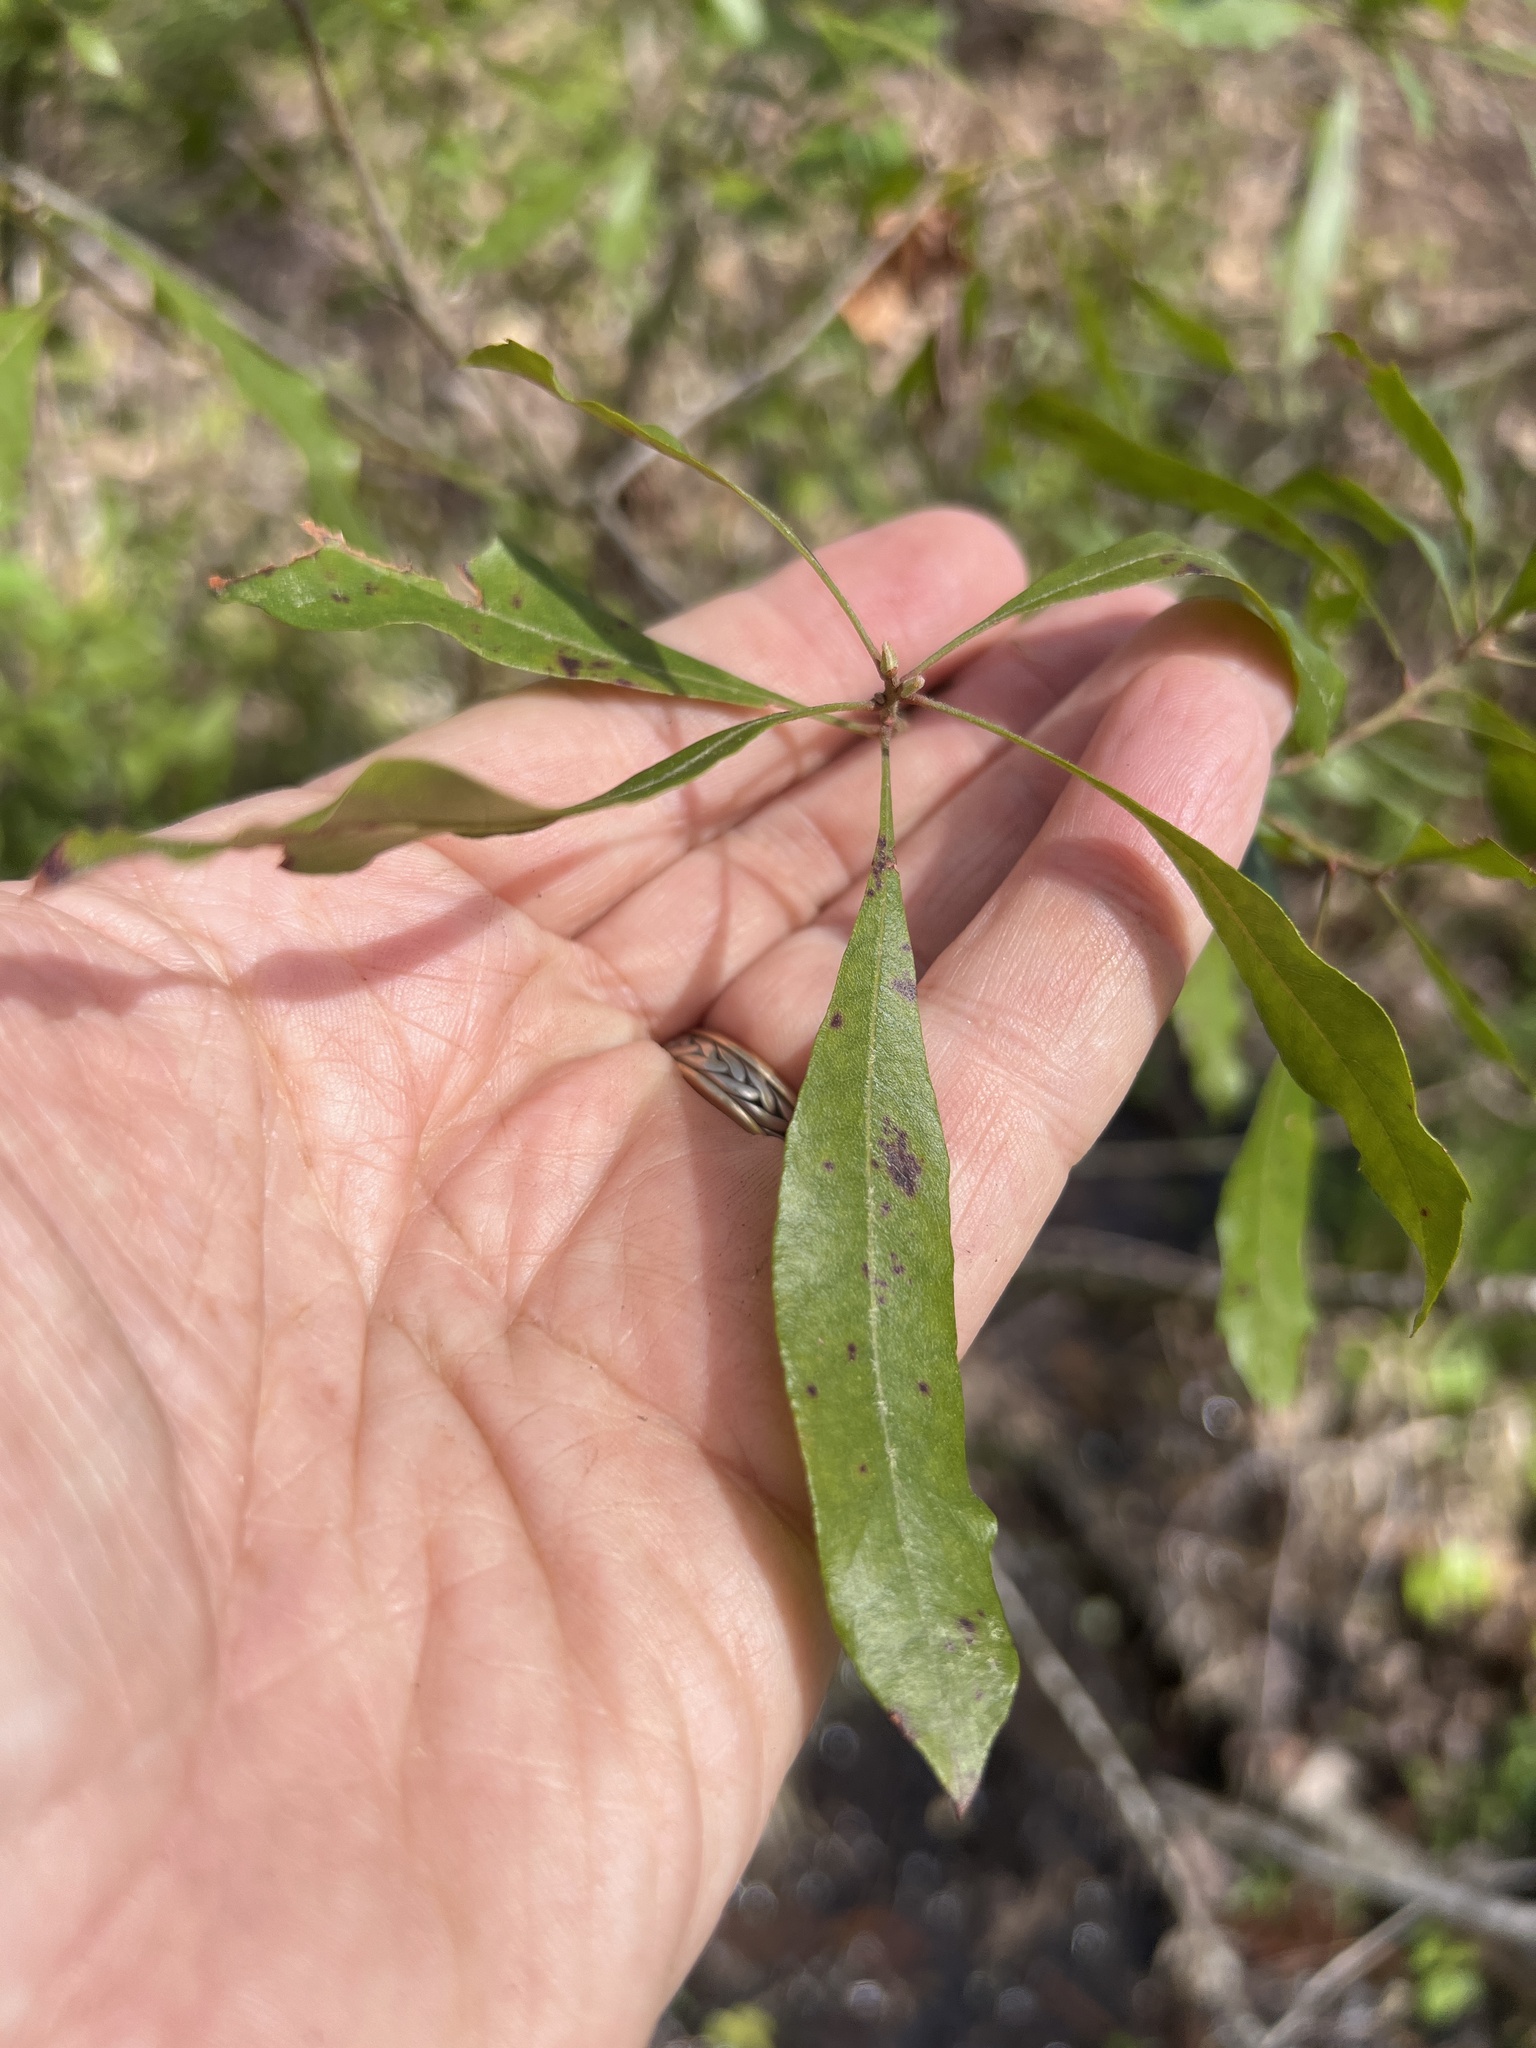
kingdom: Plantae
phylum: Tracheophyta
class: Magnoliopsida
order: Fagales
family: Myricaceae
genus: Morella
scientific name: Morella cerifera
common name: Wax myrtle
